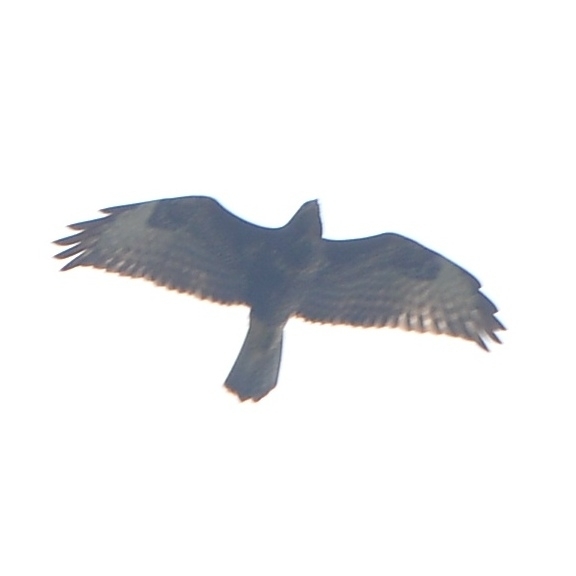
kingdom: Animalia
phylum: Chordata
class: Aves
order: Accipitriformes
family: Accipitridae
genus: Buteo
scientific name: Buteo buteo
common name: Common buzzard
